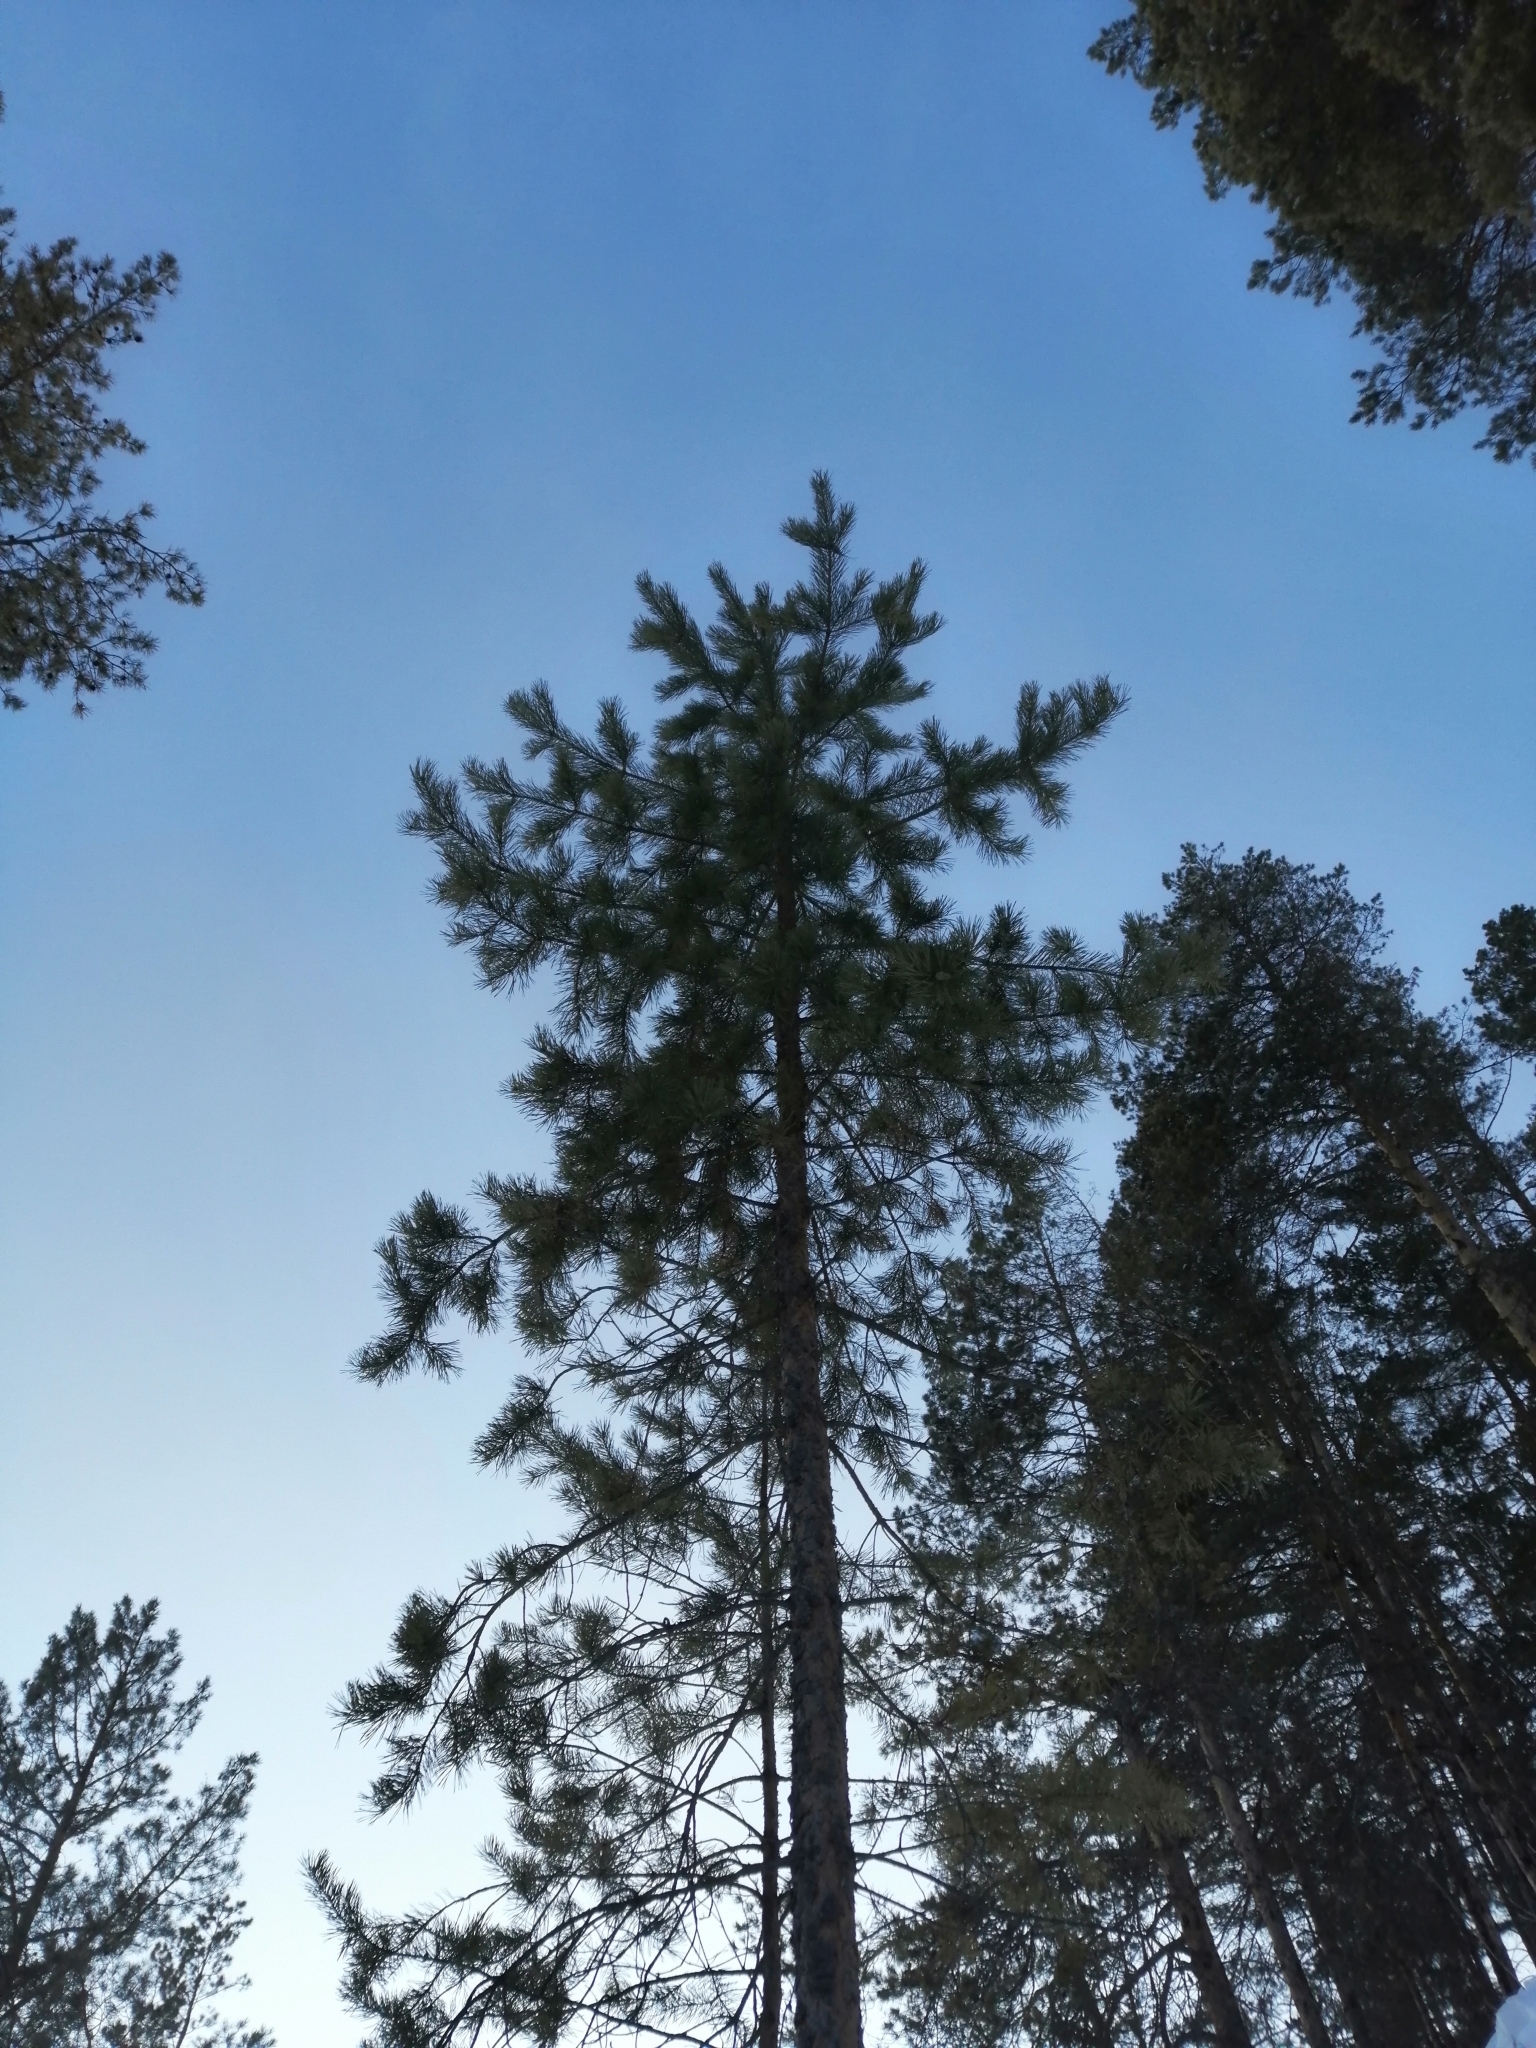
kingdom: Plantae
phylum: Tracheophyta
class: Pinopsida
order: Pinales
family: Pinaceae
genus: Pinus
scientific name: Pinus sylvestris
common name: Scots pine
